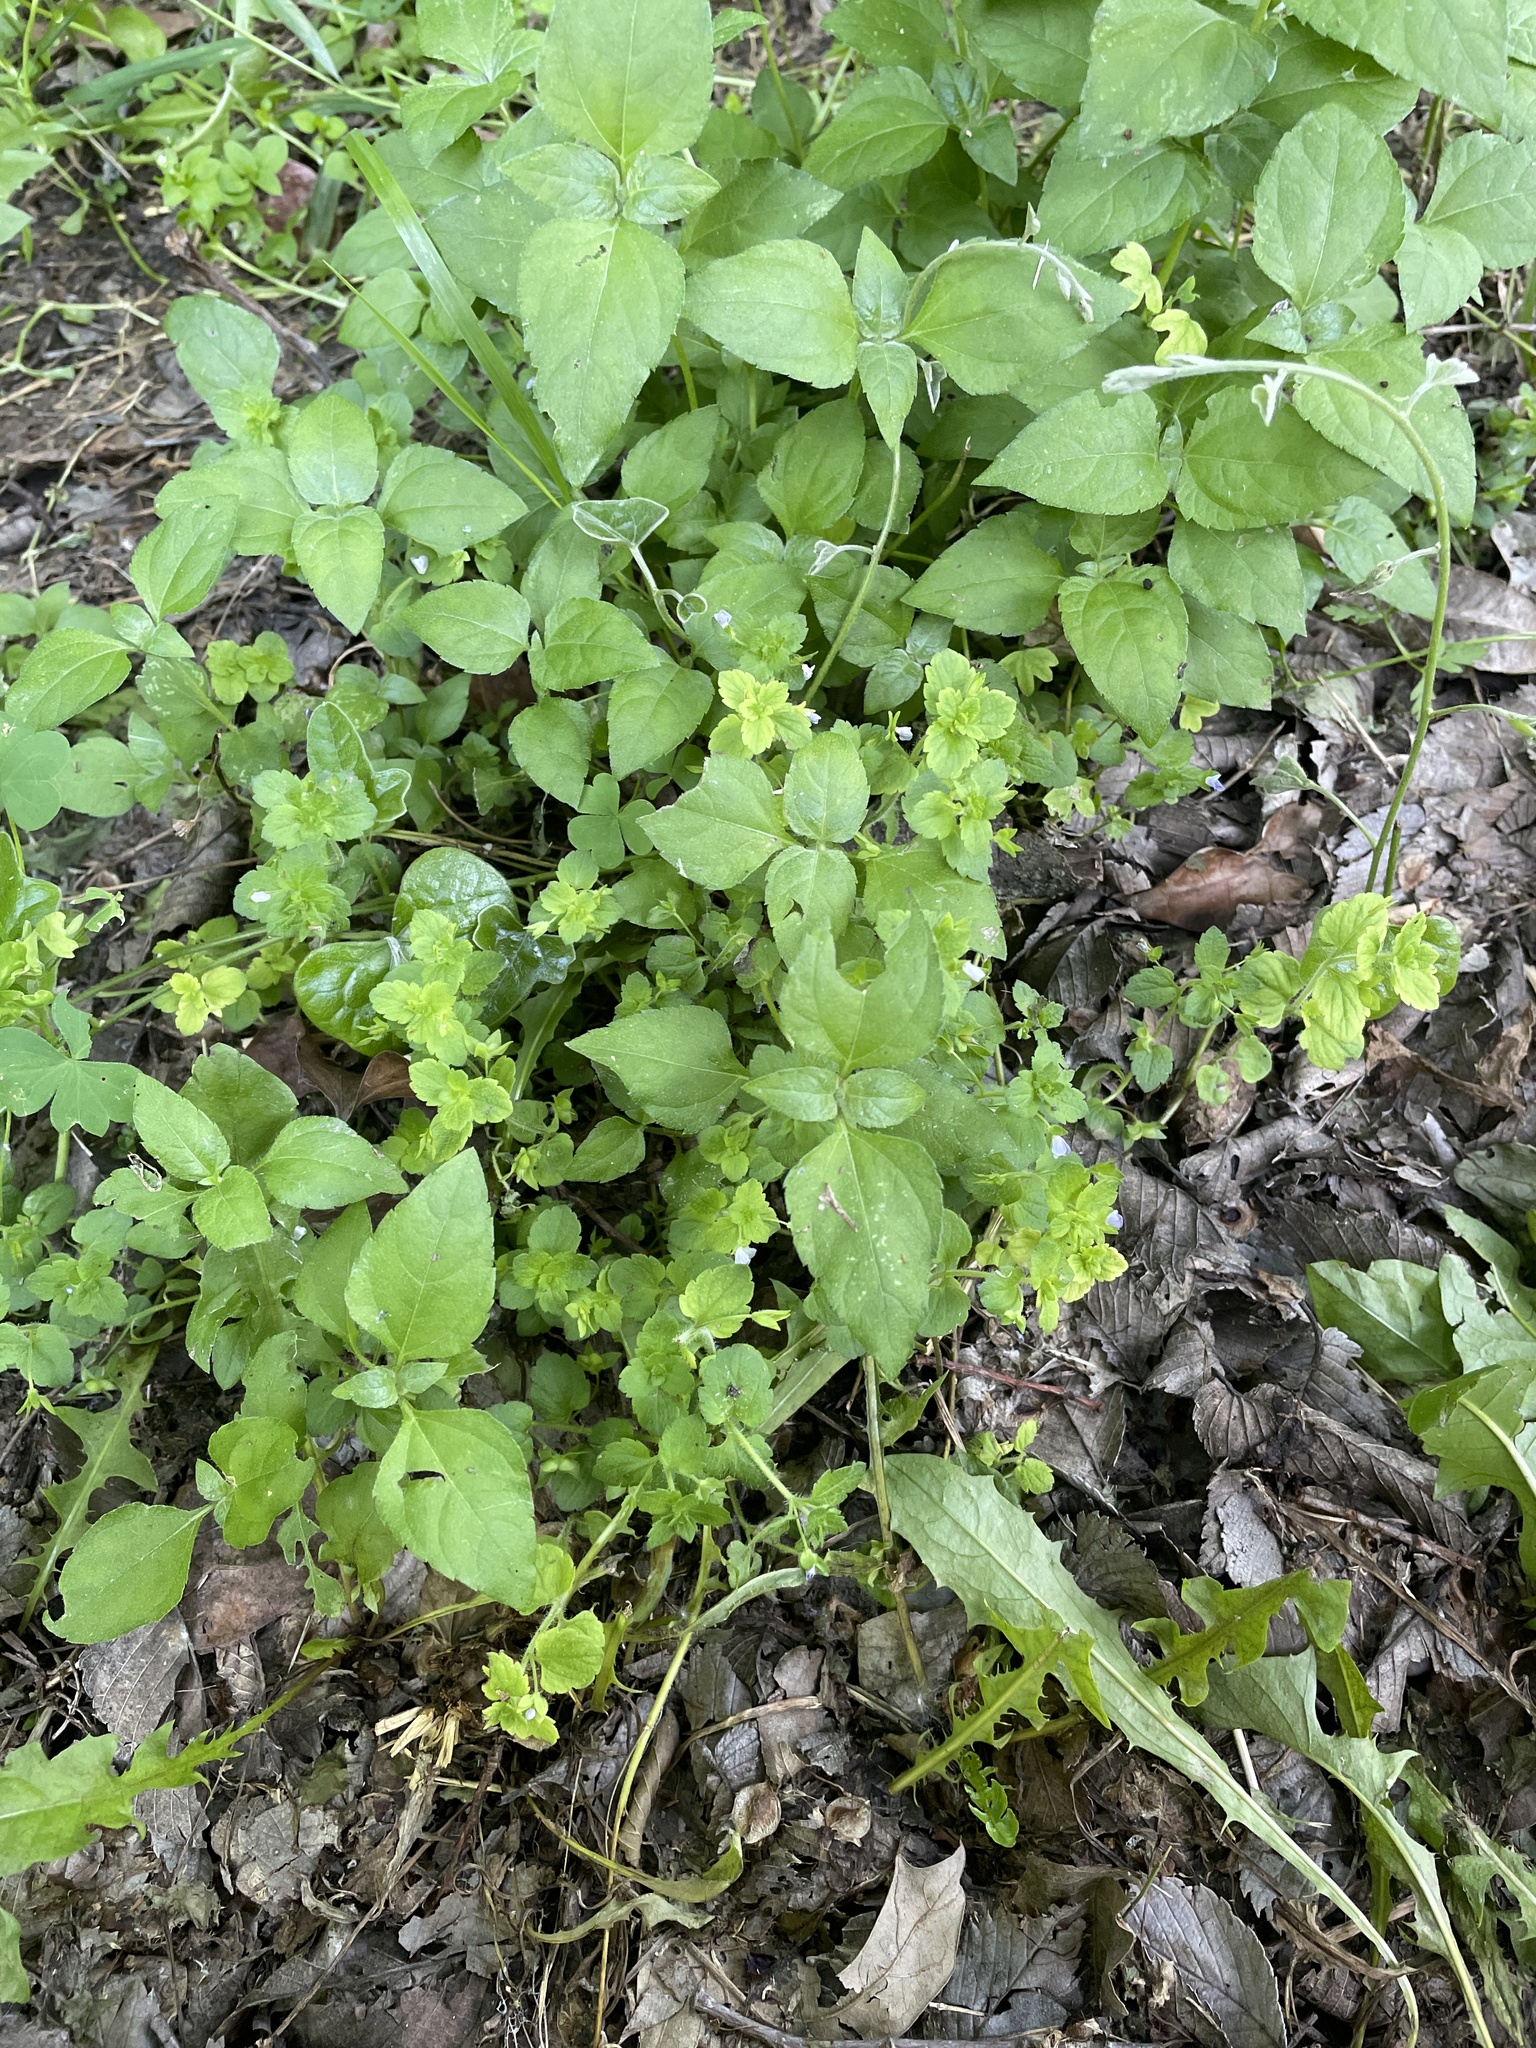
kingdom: Plantae
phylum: Tracheophyta
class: Magnoliopsida
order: Lamiales
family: Plantaginaceae
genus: Veronica
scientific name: Veronica persica
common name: Common field-speedwell
